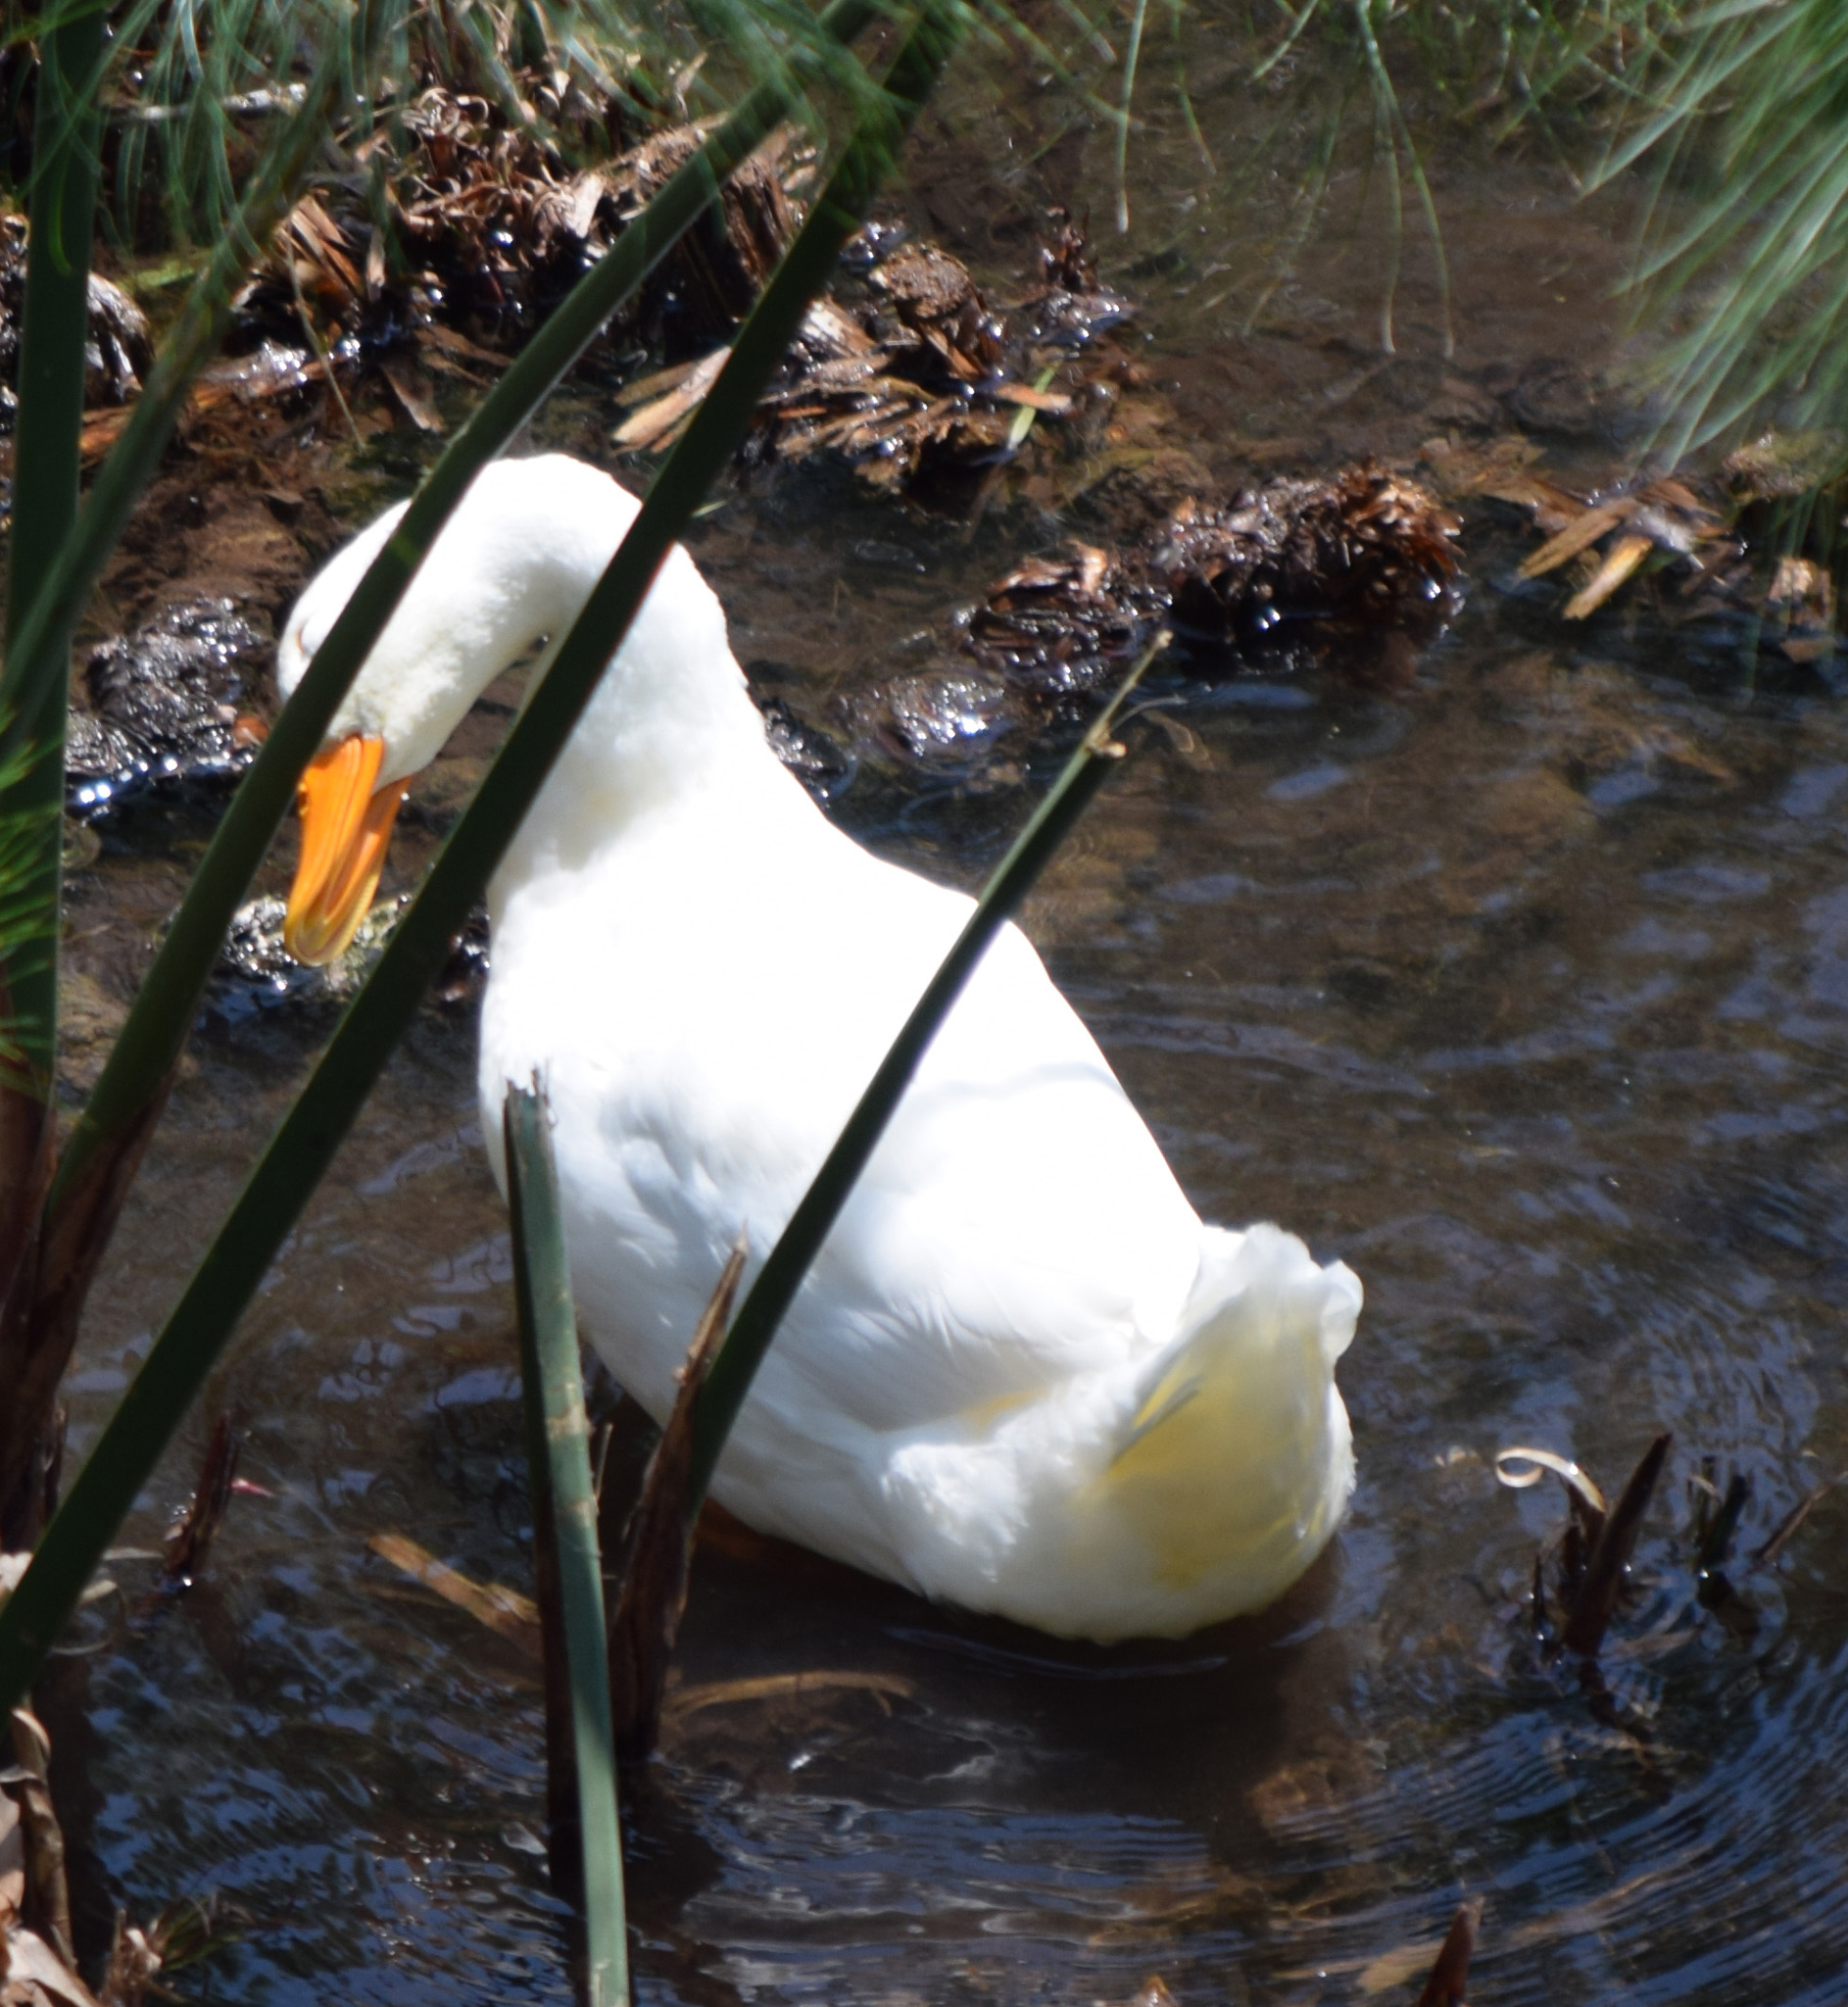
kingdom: Animalia
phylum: Chordata
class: Aves
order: Anseriformes
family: Anatidae
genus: Anas
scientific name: Anas platyrhynchos
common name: Mallard
